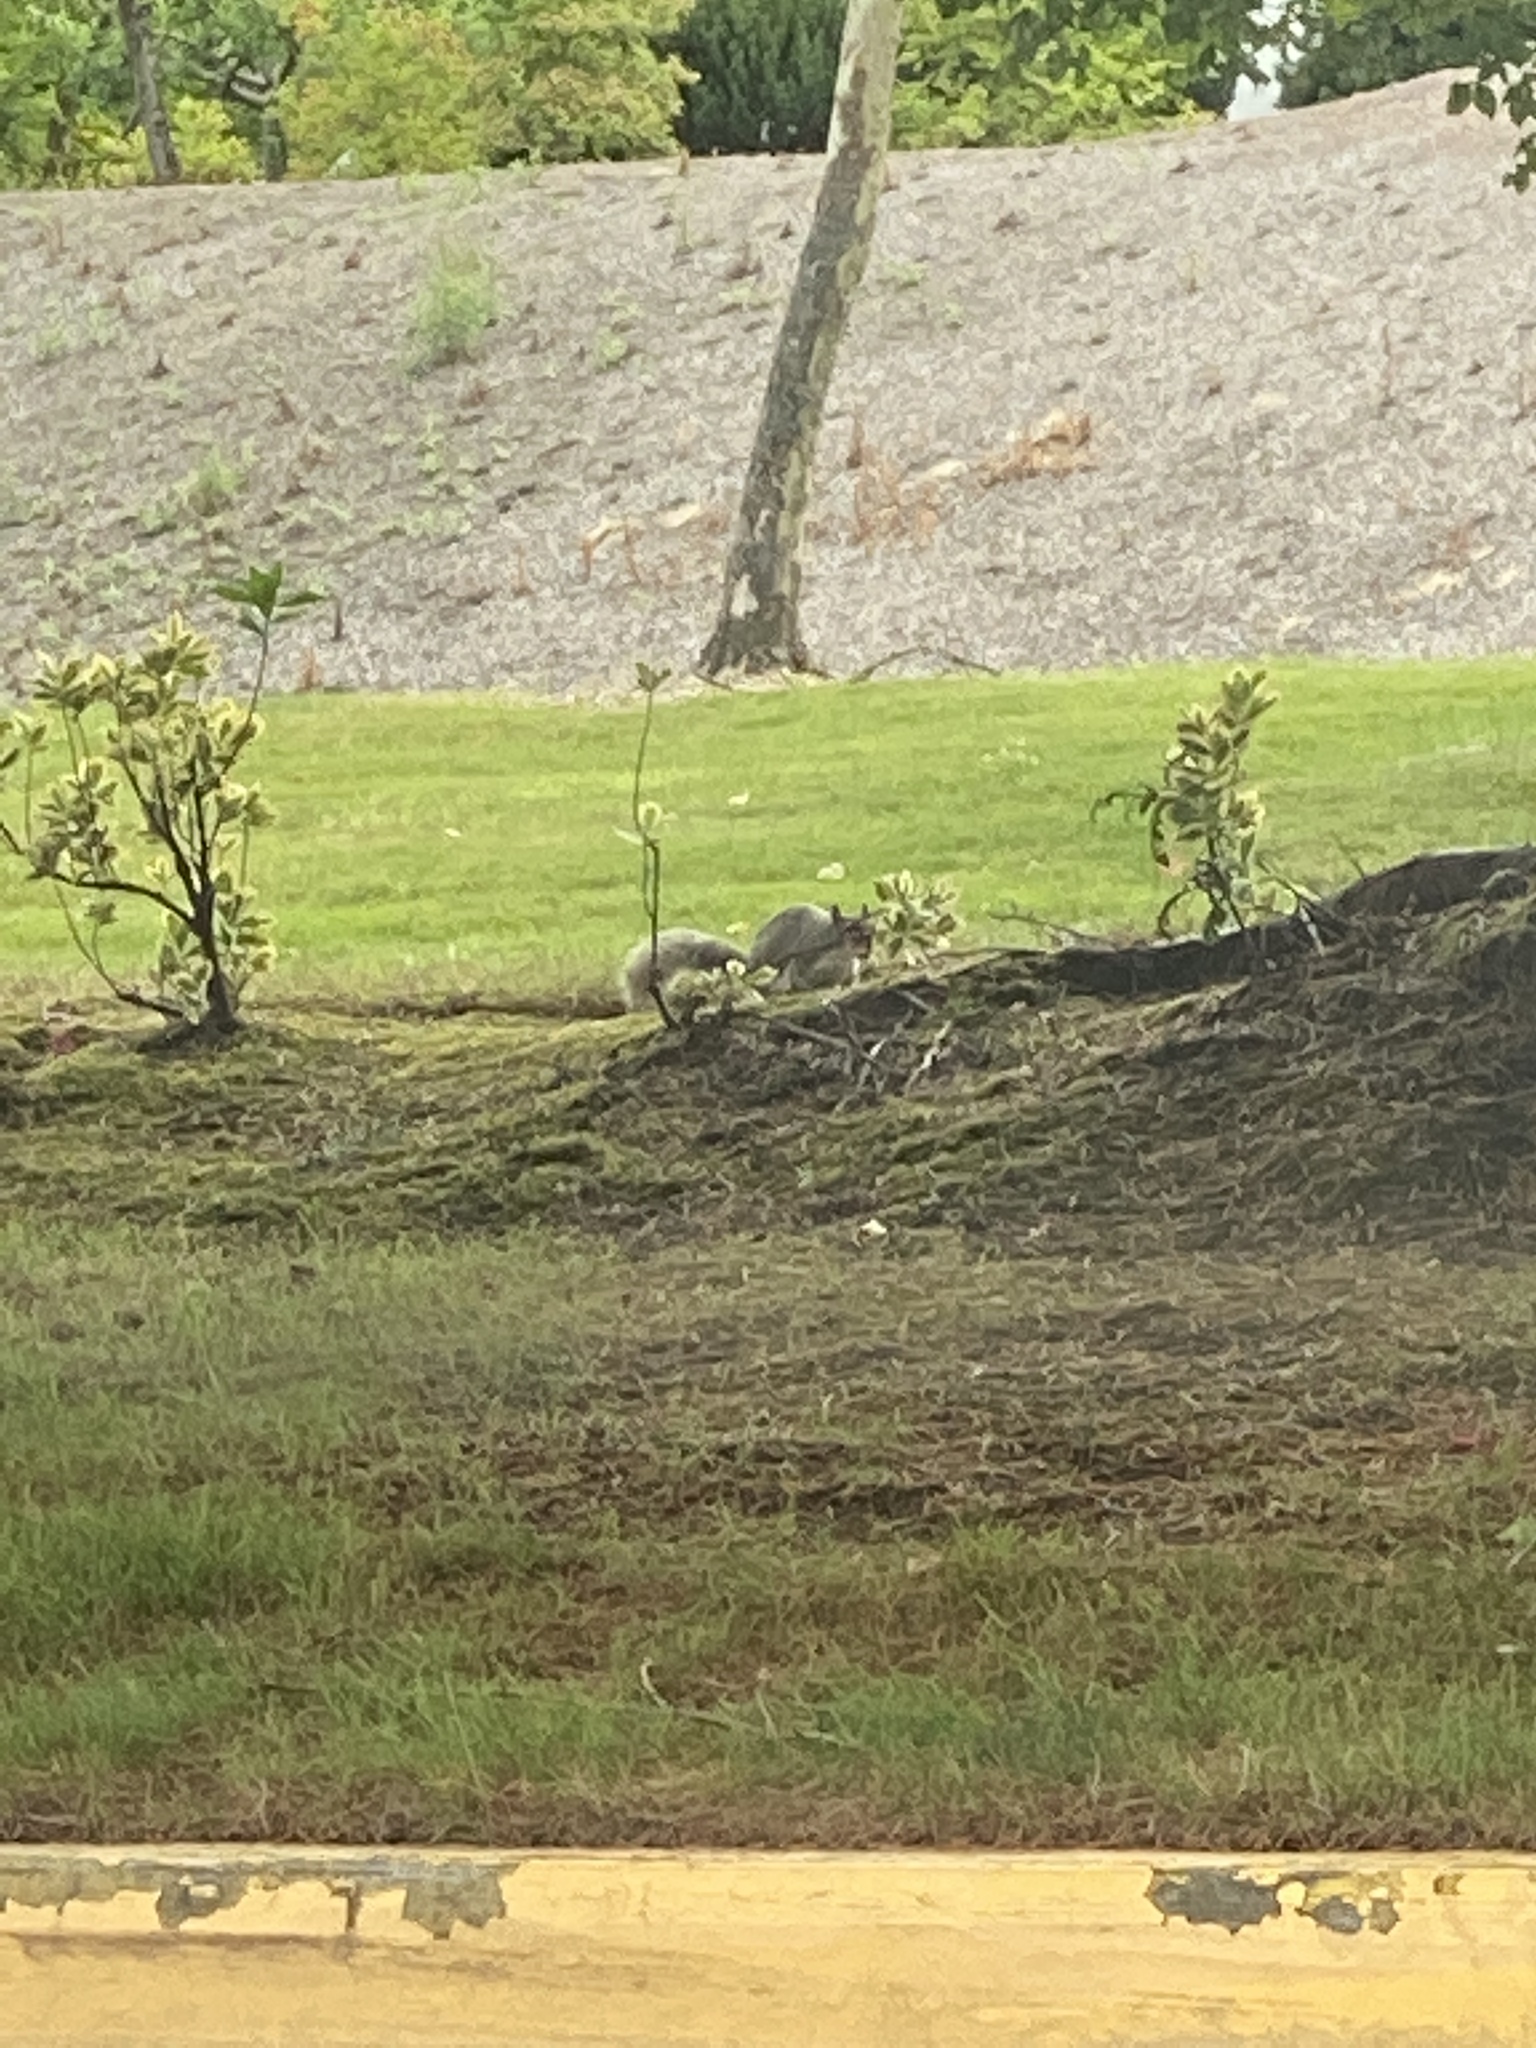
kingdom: Animalia
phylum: Chordata
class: Mammalia
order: Rodentia
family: Sciuridae
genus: Sciurus
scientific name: Sciurus carolinensis
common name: Eastern gray squirrel
